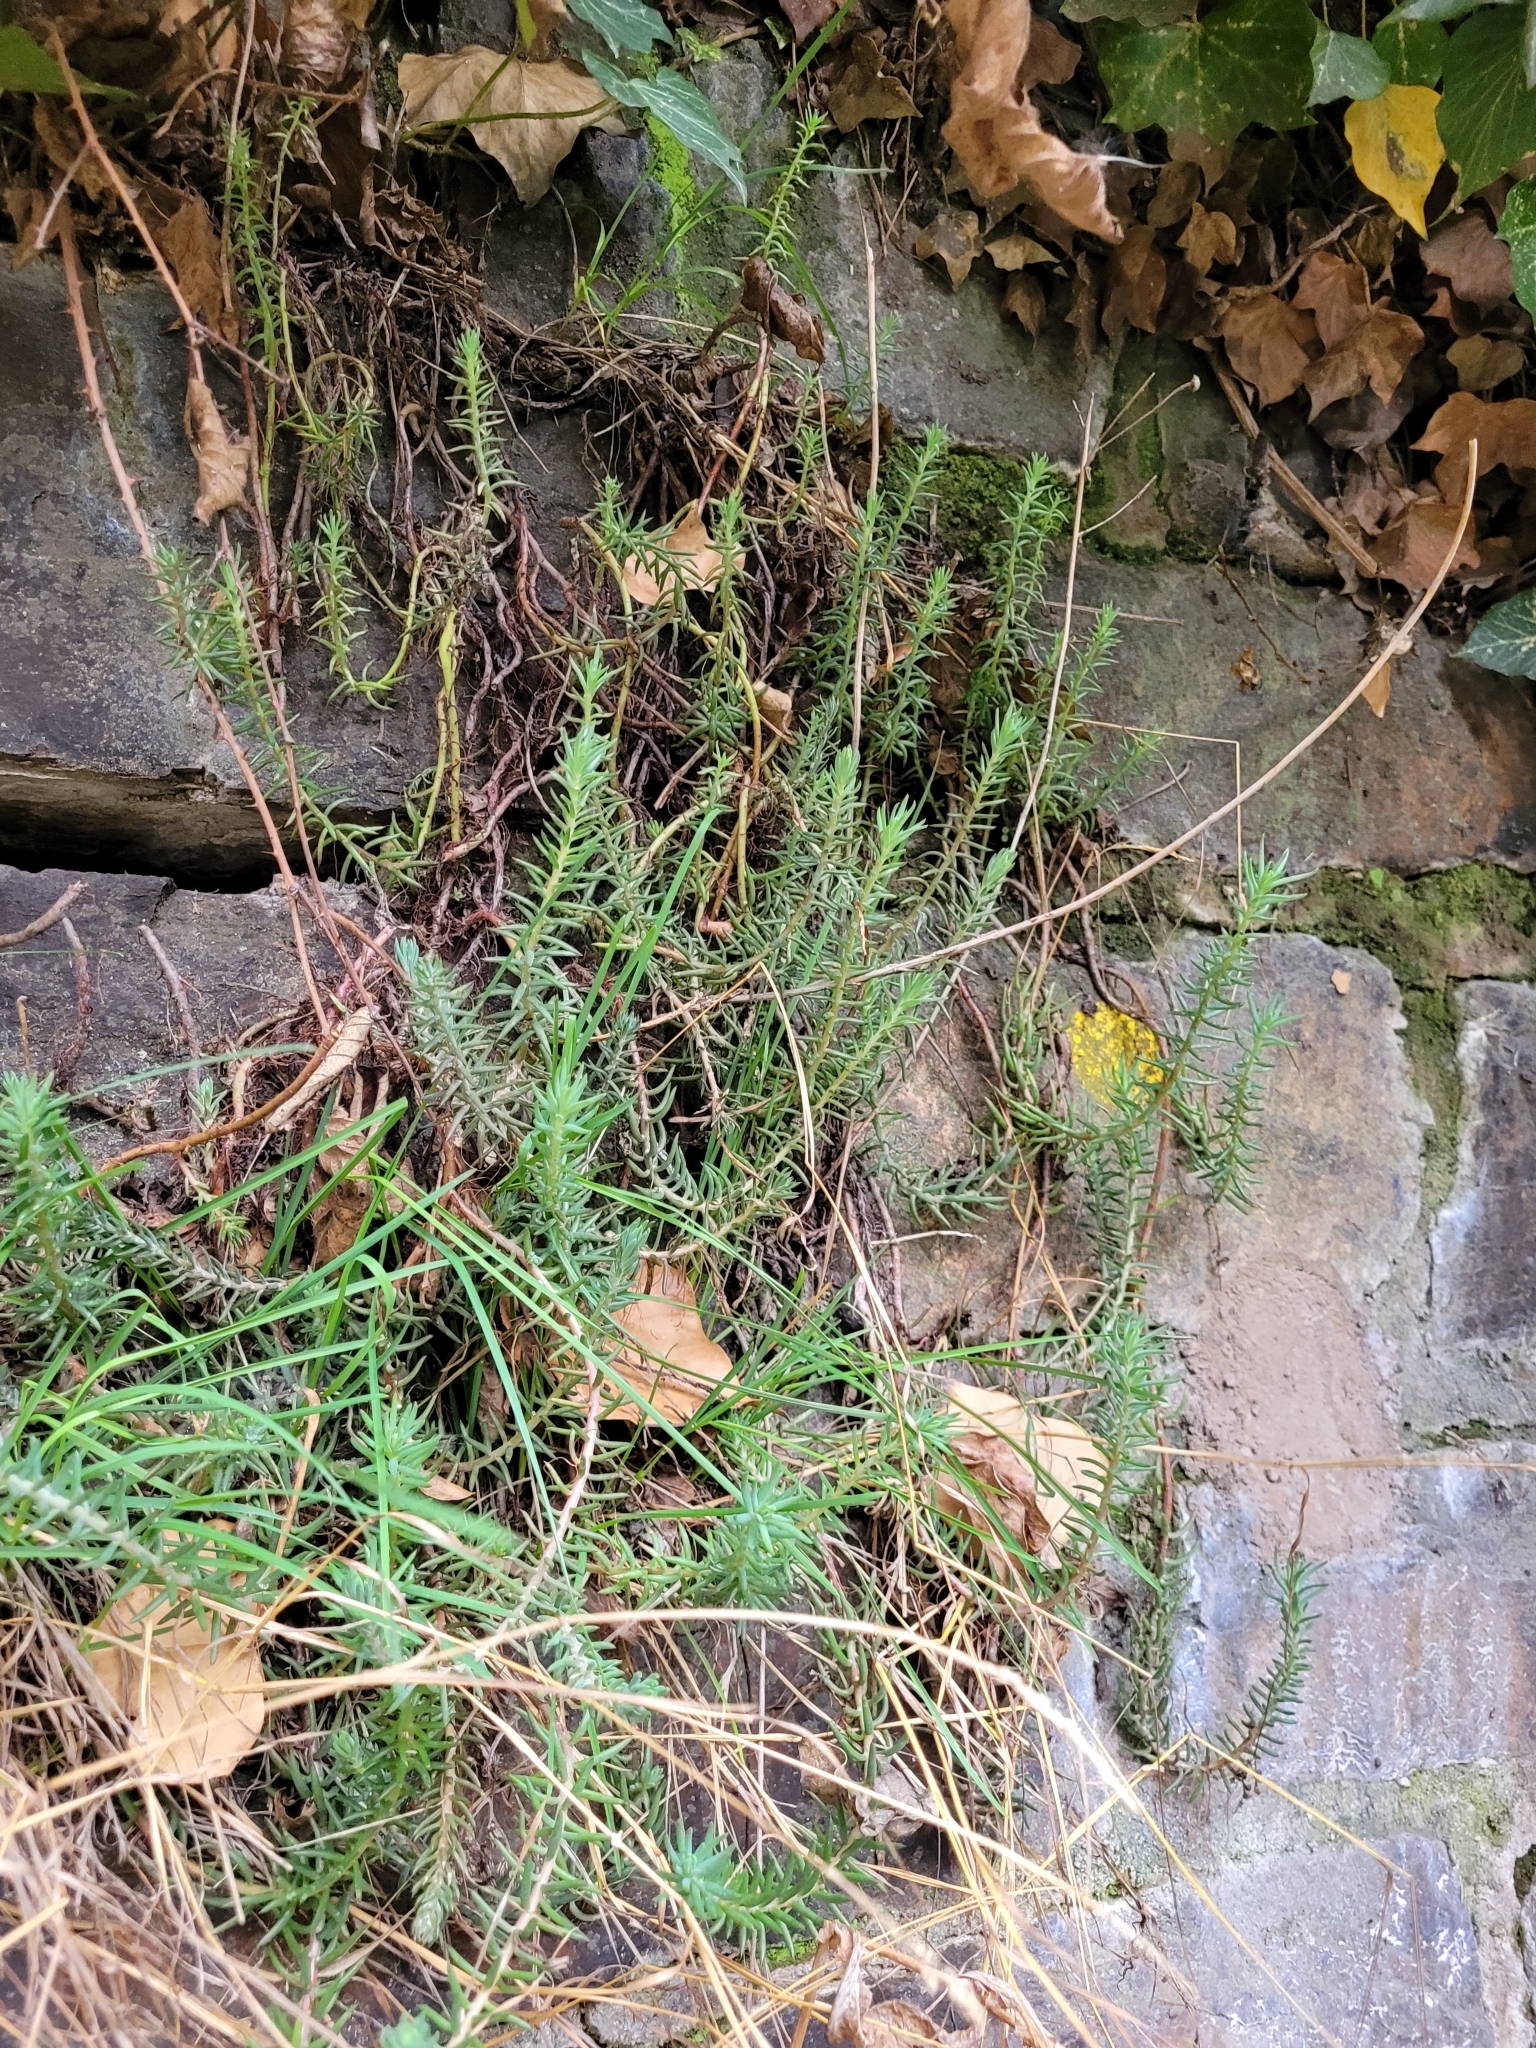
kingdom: Plantae
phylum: Tracheophyta
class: Magnoliopsida
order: Saxifragales
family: Crassulaceae
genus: Petrosedum
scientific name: Petrosedum rupestre
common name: Jenny's stonecrop
